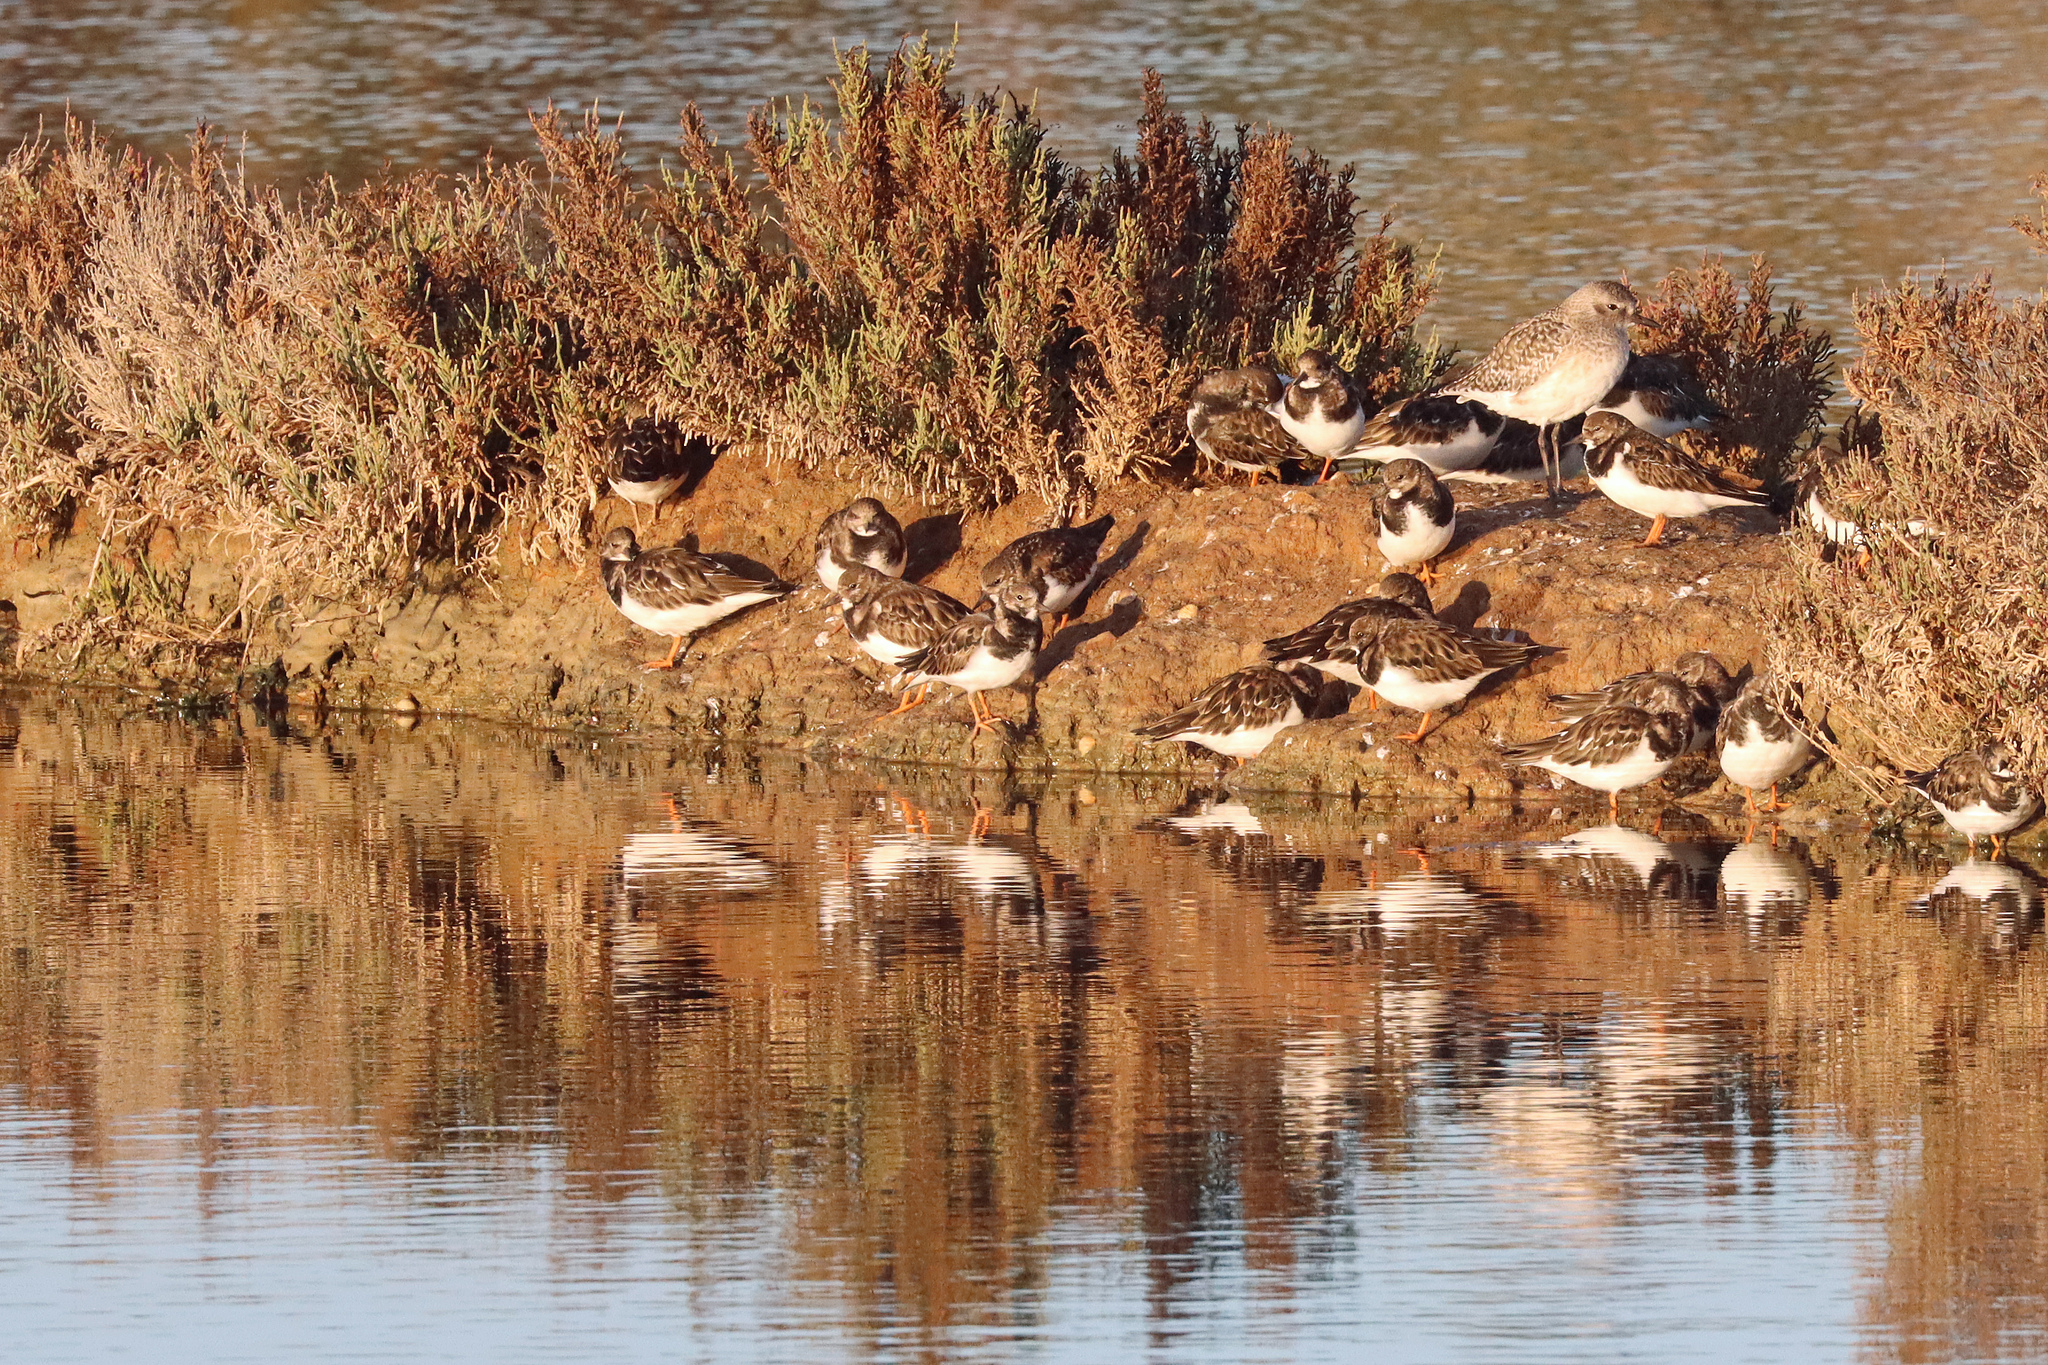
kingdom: Animalia
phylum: Chordata
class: Aves
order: Charadriiformes
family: Scolopacidae
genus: Arenaria
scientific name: Arenaria interpres
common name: Ruddy turnstone
